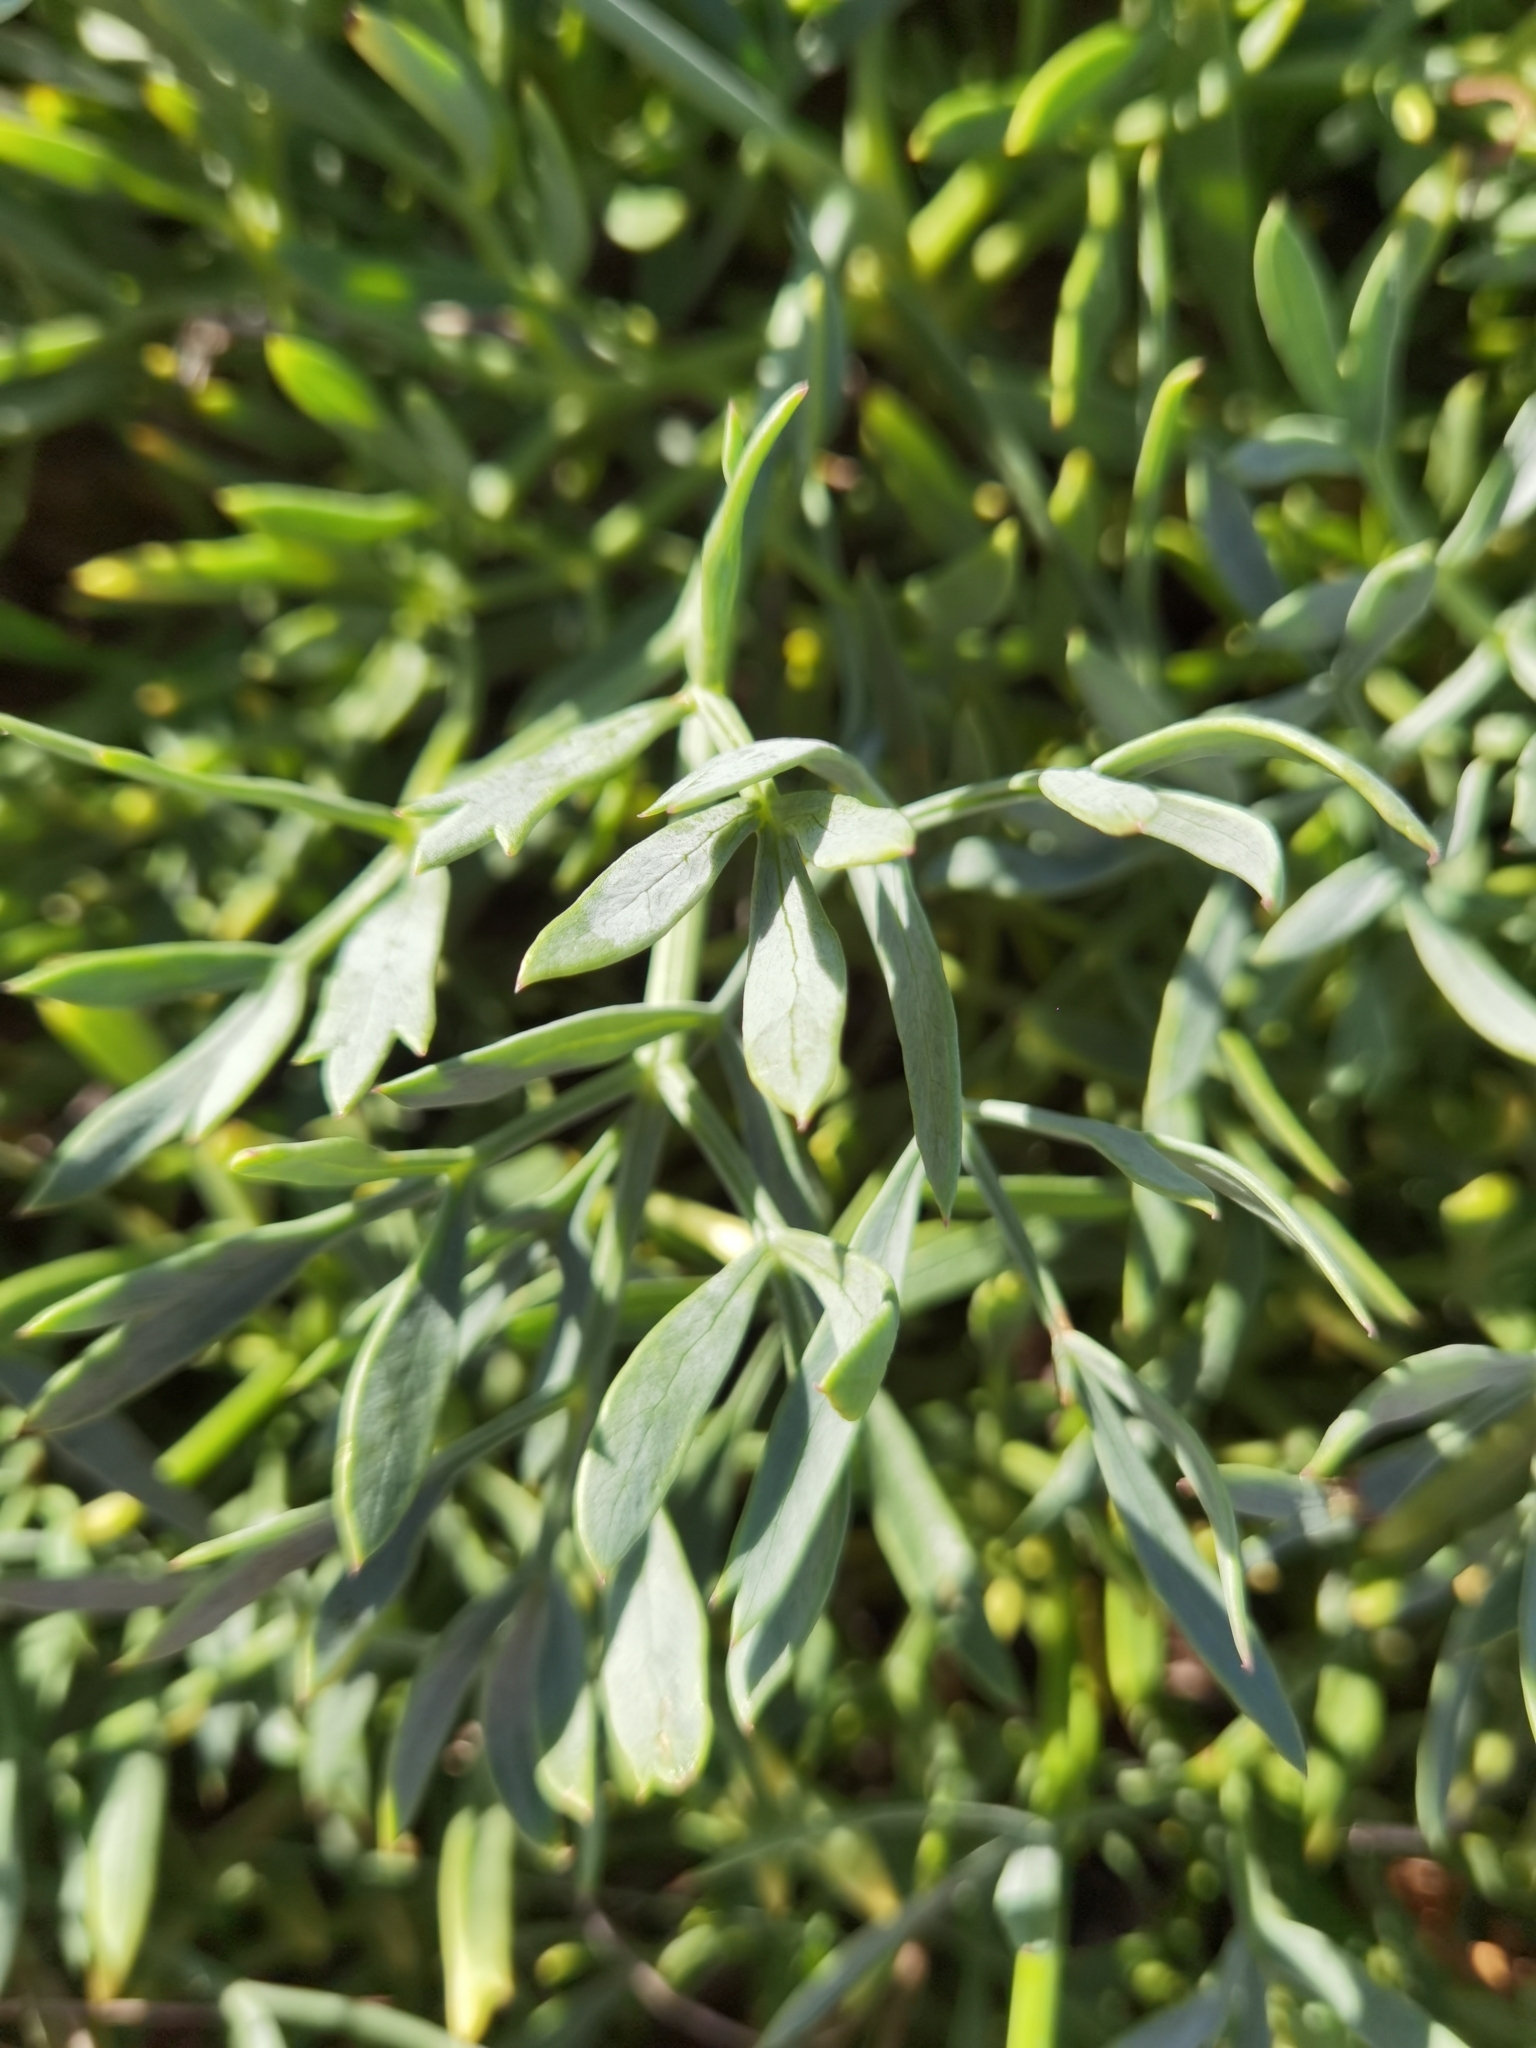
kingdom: Plantae
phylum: Tracheophyta
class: Magnoliopsida
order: Apiales
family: Apiaceae
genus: Crithmum
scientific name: Crithmum maritimum
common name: Rock samphire
